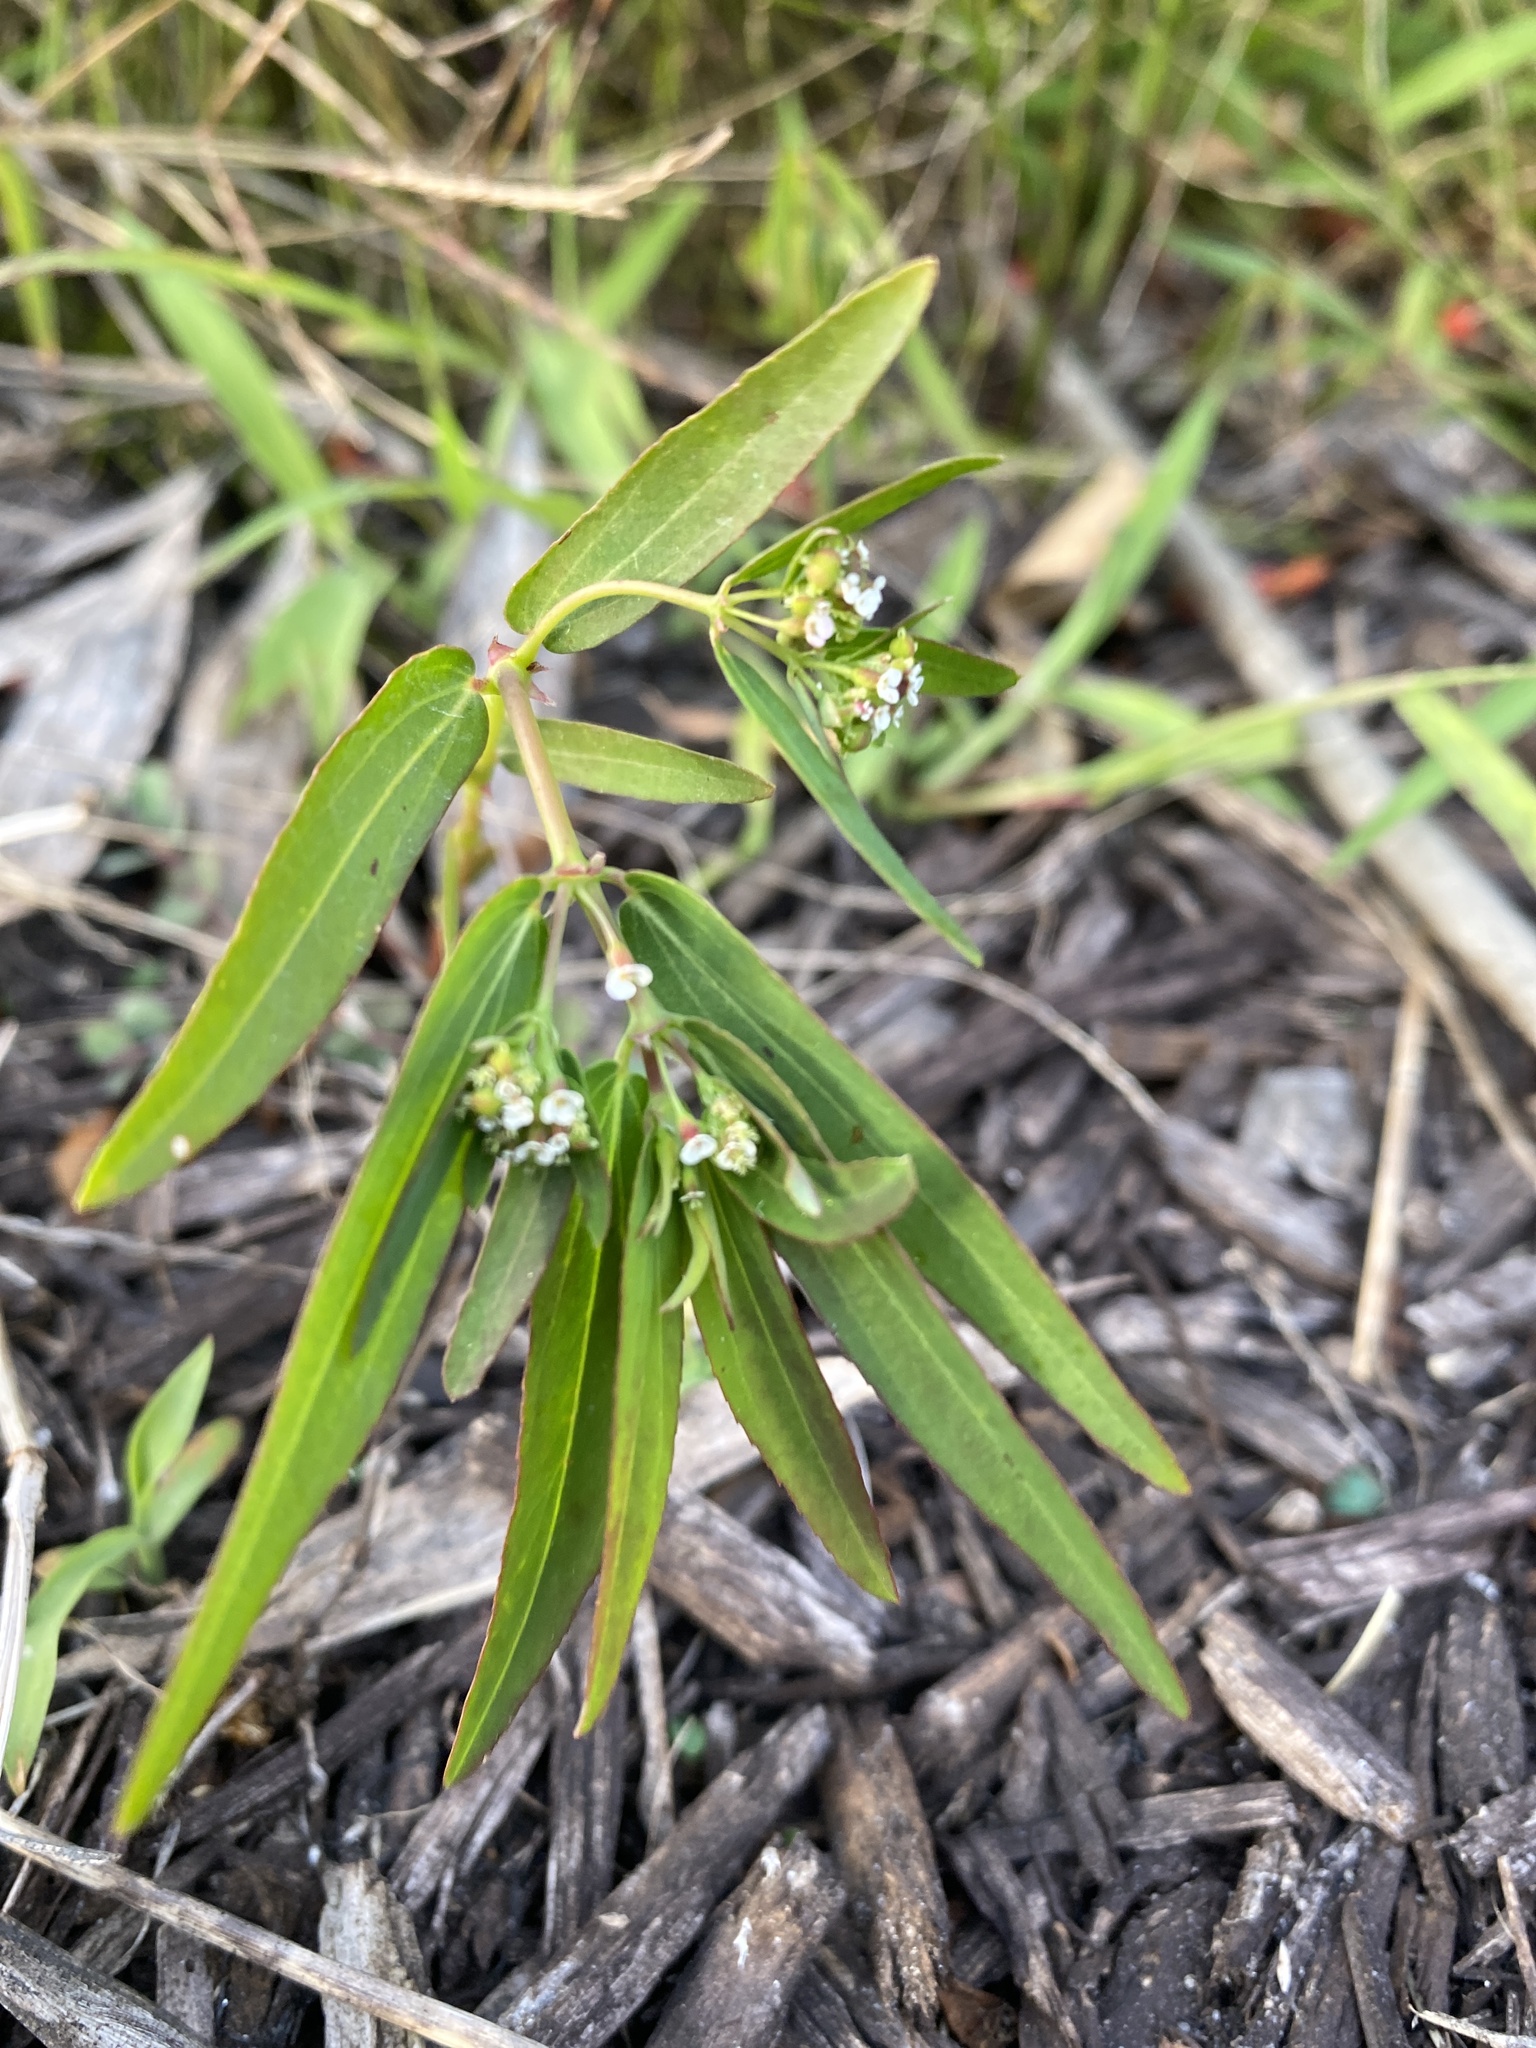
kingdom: Plantae
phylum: Tracheophyta
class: Magnoliopsida
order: Malpighiales
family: Euphorbiaceae
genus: Euphorbia
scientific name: Euphorbia hypericifolia
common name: Graceful sandmat
